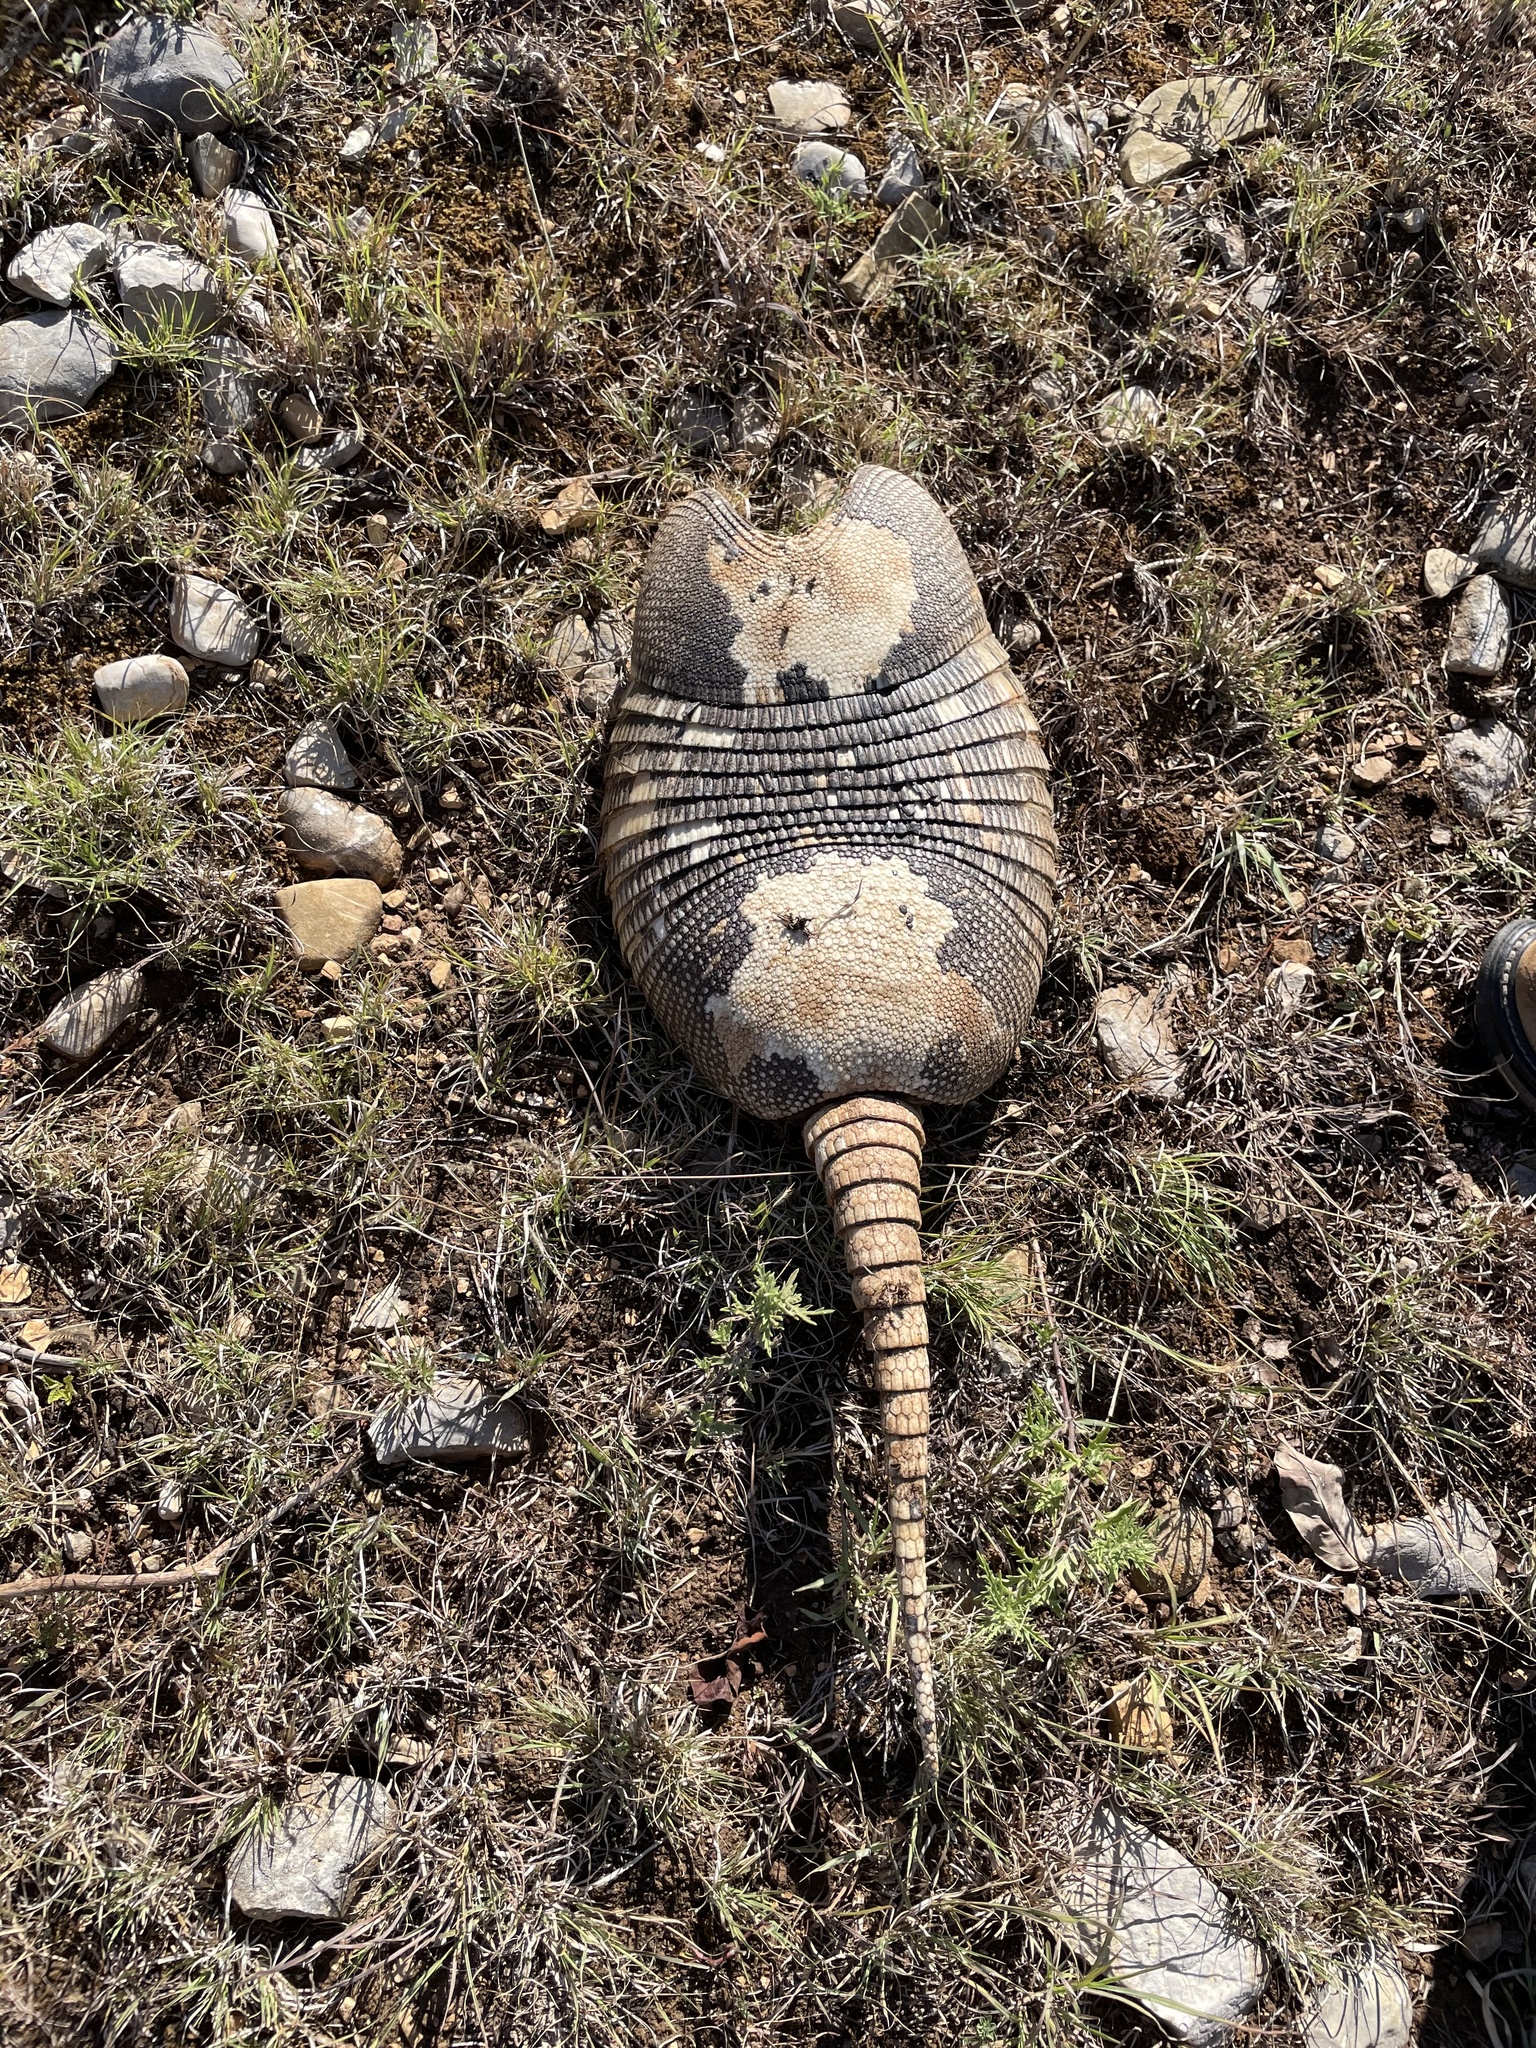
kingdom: Animalia
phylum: Chordata
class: Mammalia
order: Cingulata
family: Dasypodidae
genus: Dasypus
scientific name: Dasypus novemcinctus
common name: Nine-banded armadillo
